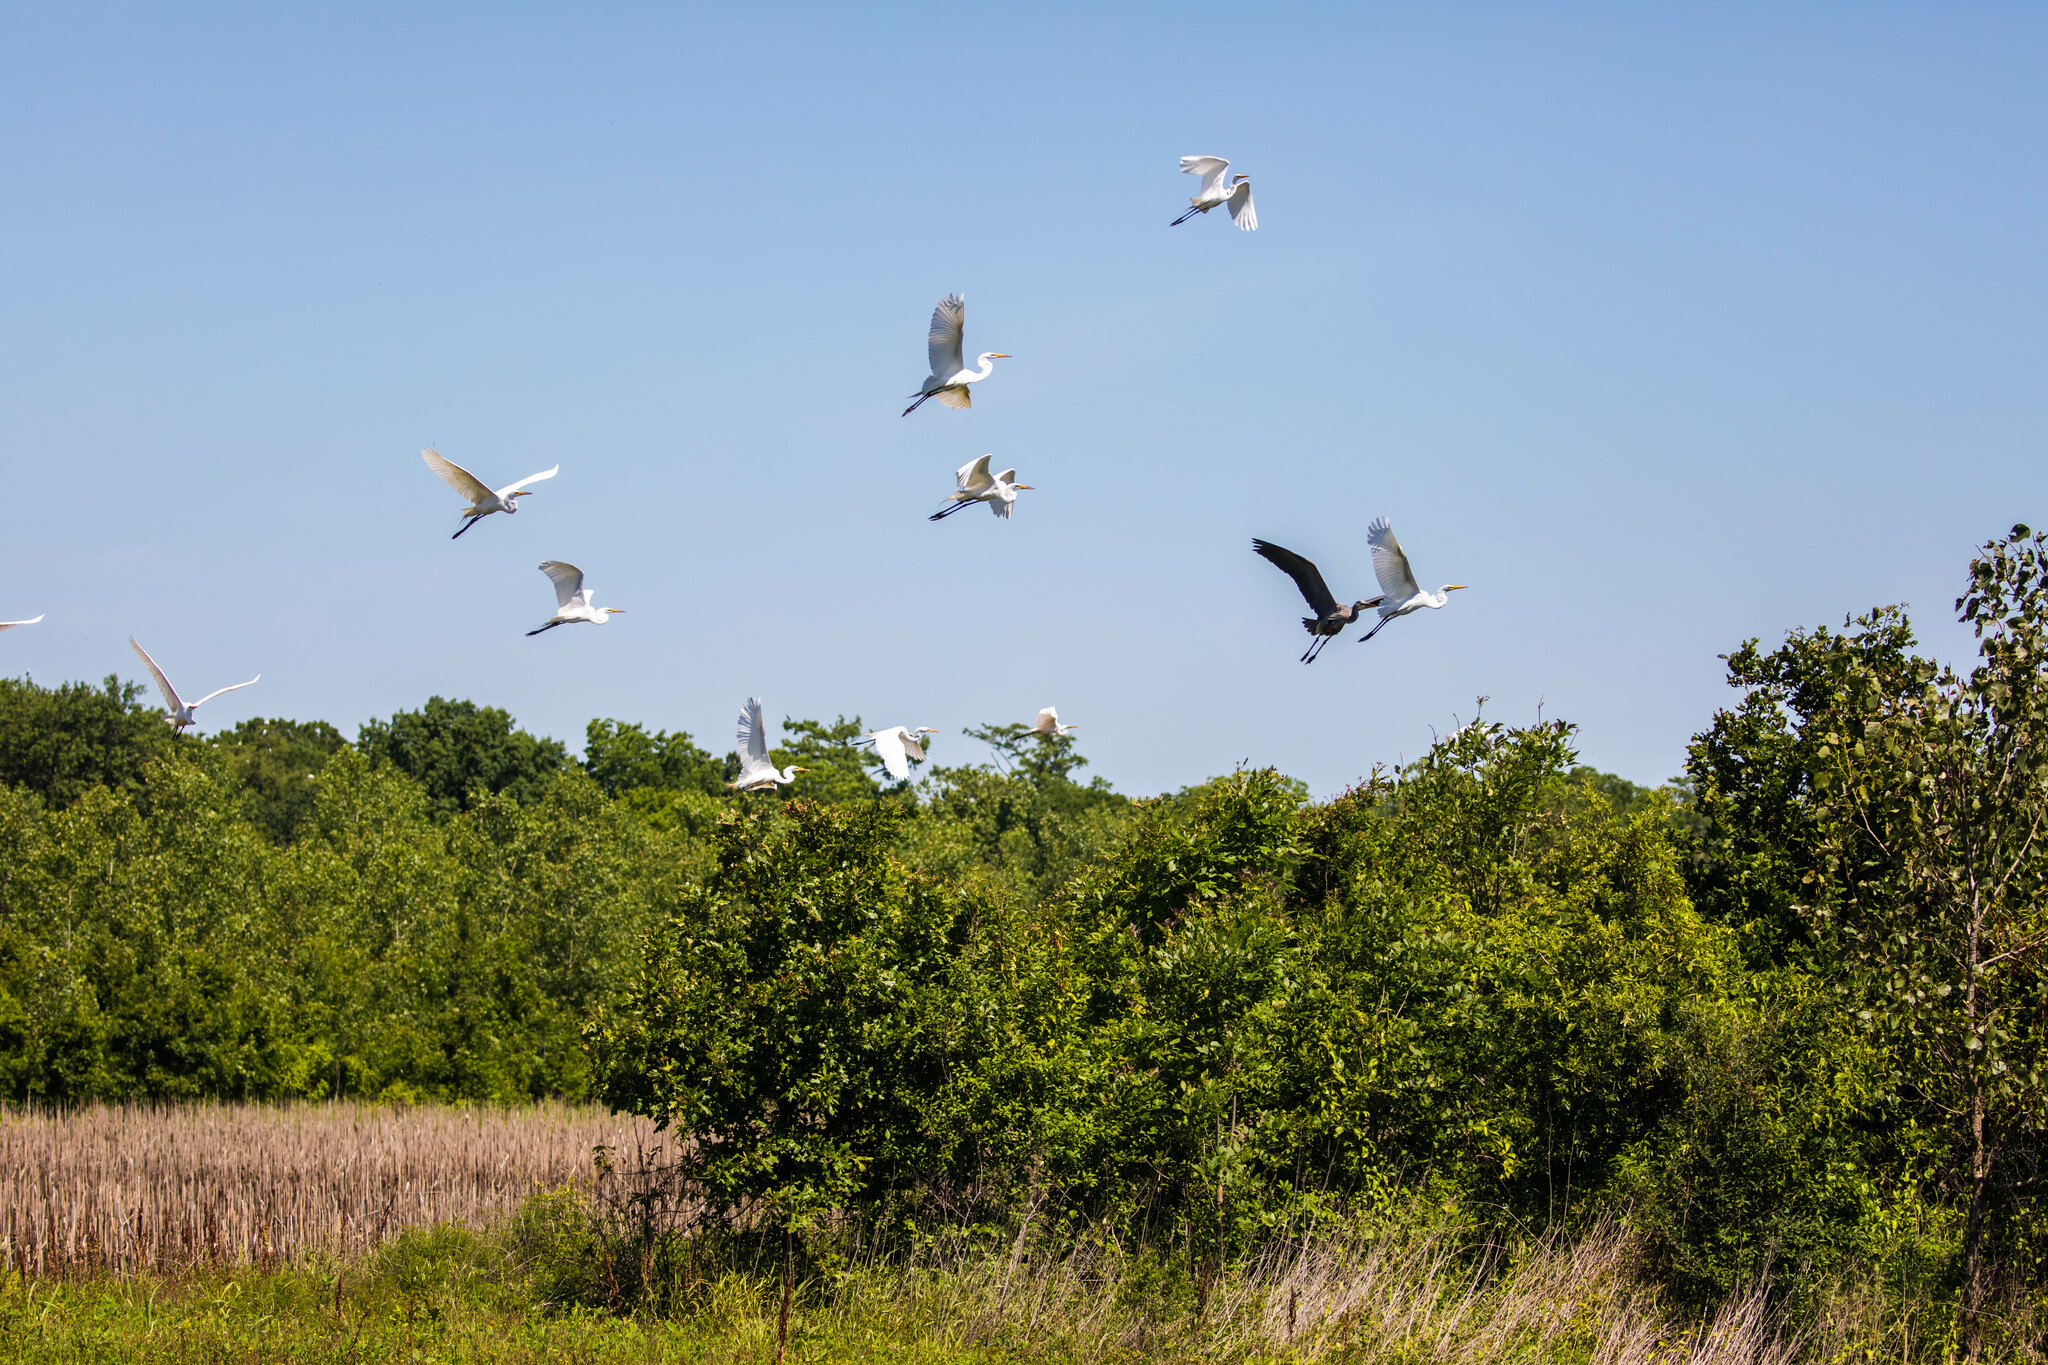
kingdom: Animalia
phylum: Chordata
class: Aves
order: Pelecaniformes
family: Ardeidae
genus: Ardea
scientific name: Ardea alba
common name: Great egret
